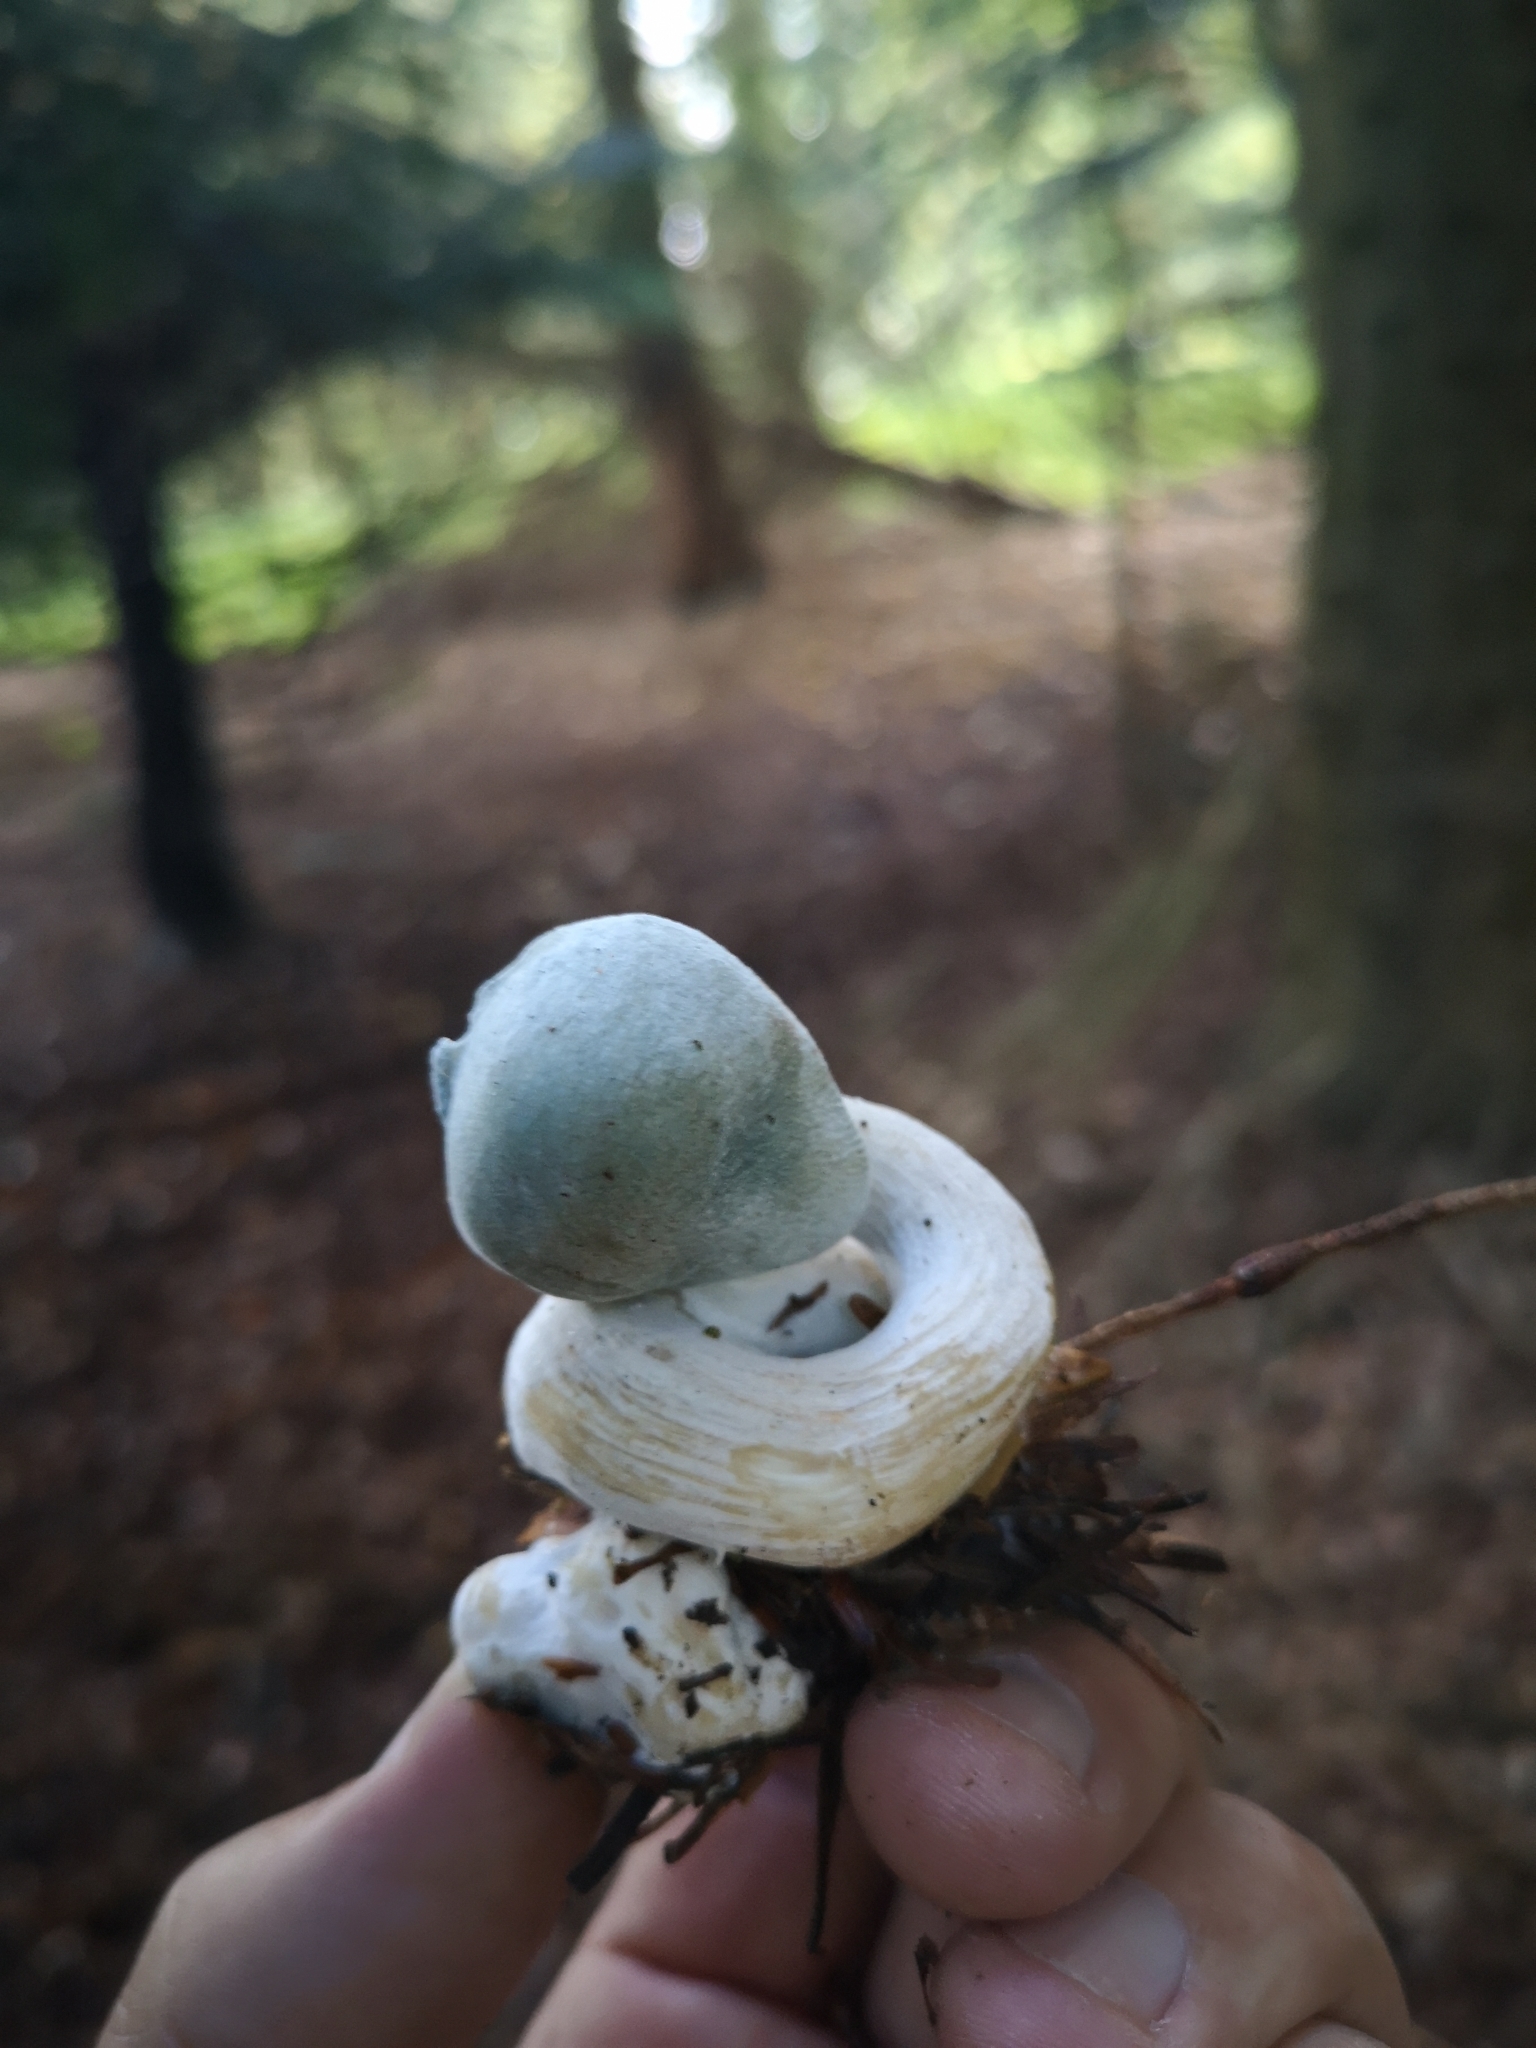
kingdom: Fungi
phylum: Basidiomycota
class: Agaricomycetes
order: Agaricales
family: Tricholomataceae
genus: Collybia
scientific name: Collybia
